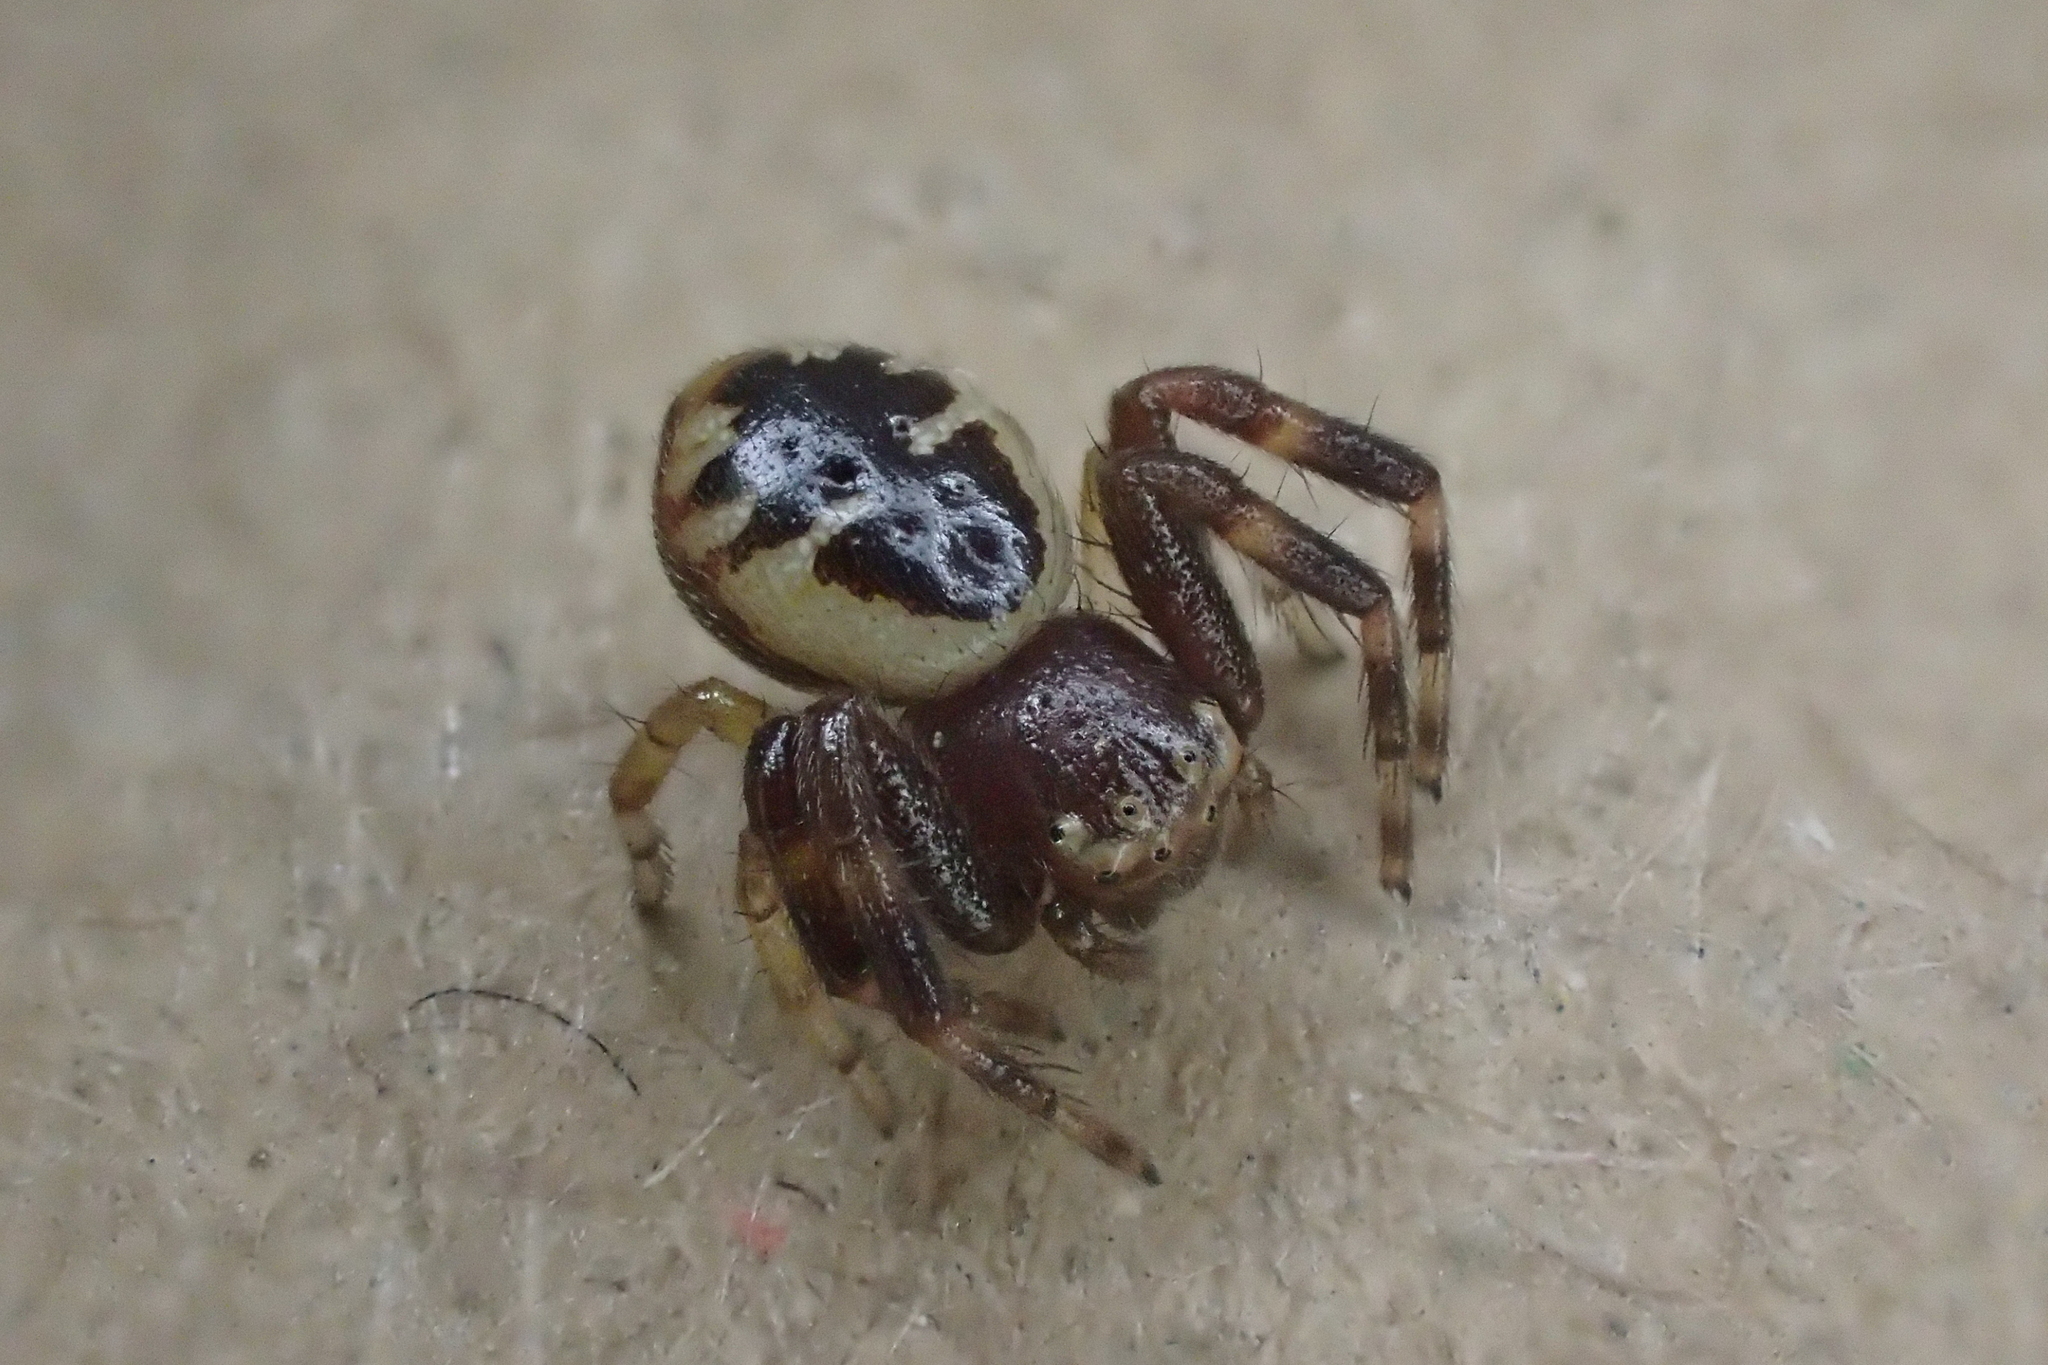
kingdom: Animalia
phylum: Arthropoda
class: Arachnida
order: Araneae
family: Thomisidae
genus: Synema
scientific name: Synema globosum
